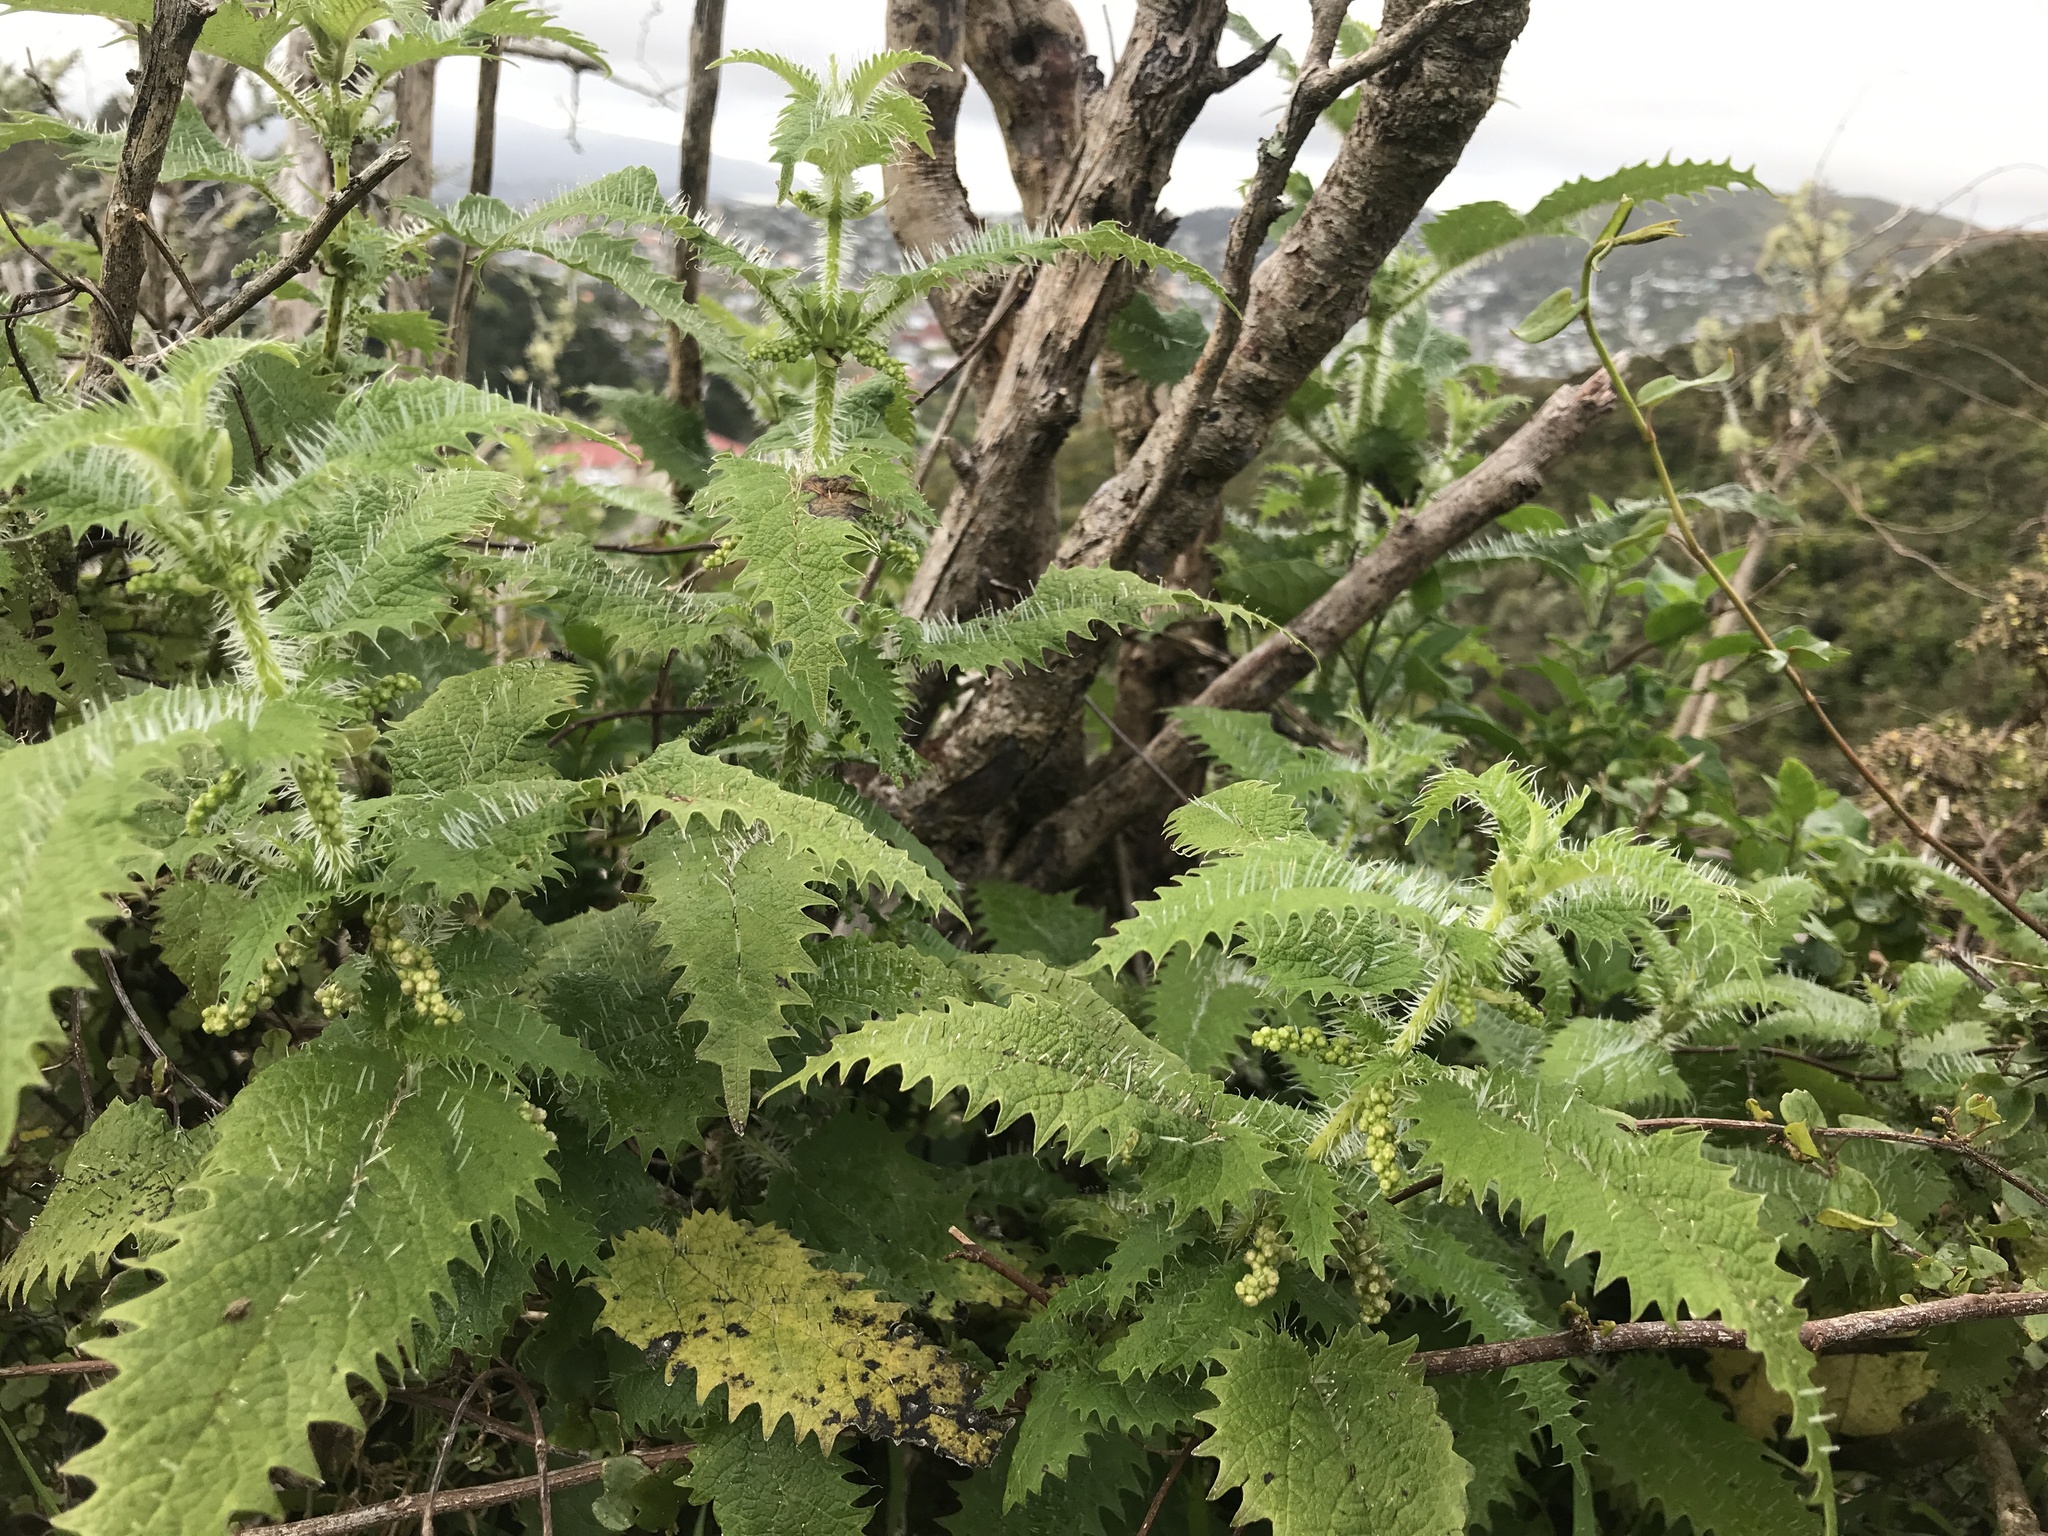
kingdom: Plantae
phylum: Tracheophyta
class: Magnoliopsida
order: Rosales
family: Urticaceae
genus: Urtica
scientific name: Urtica ferox
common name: Tree nettle
